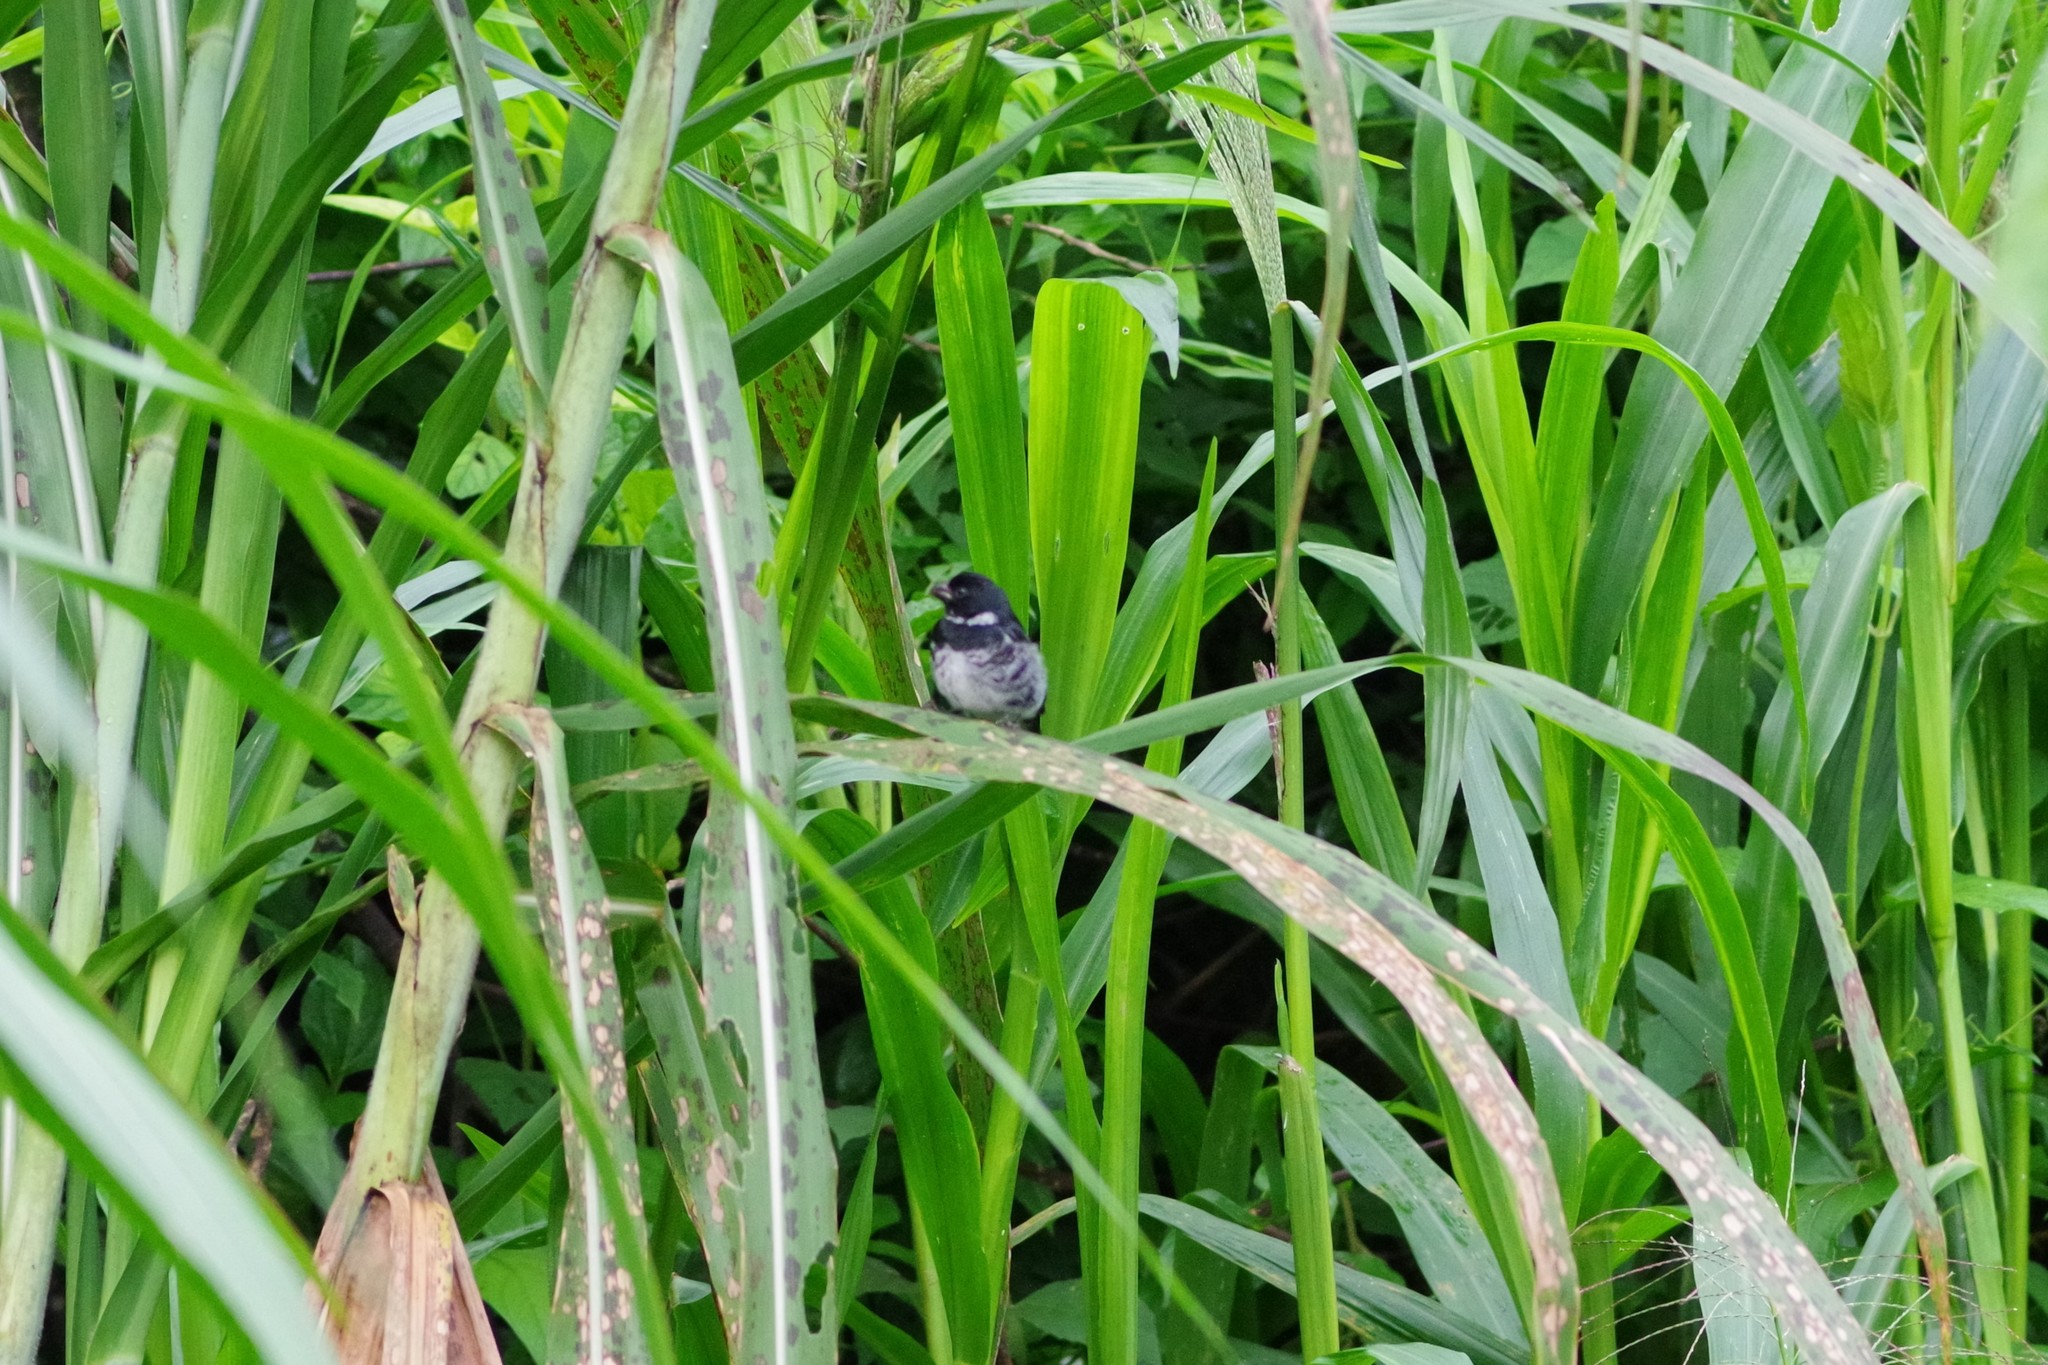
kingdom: Animalia
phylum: Chordata
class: Aves
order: Passeriformes
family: Thraupidae
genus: Sporophila
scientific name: Sporophila corvina
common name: Variable seedeater
